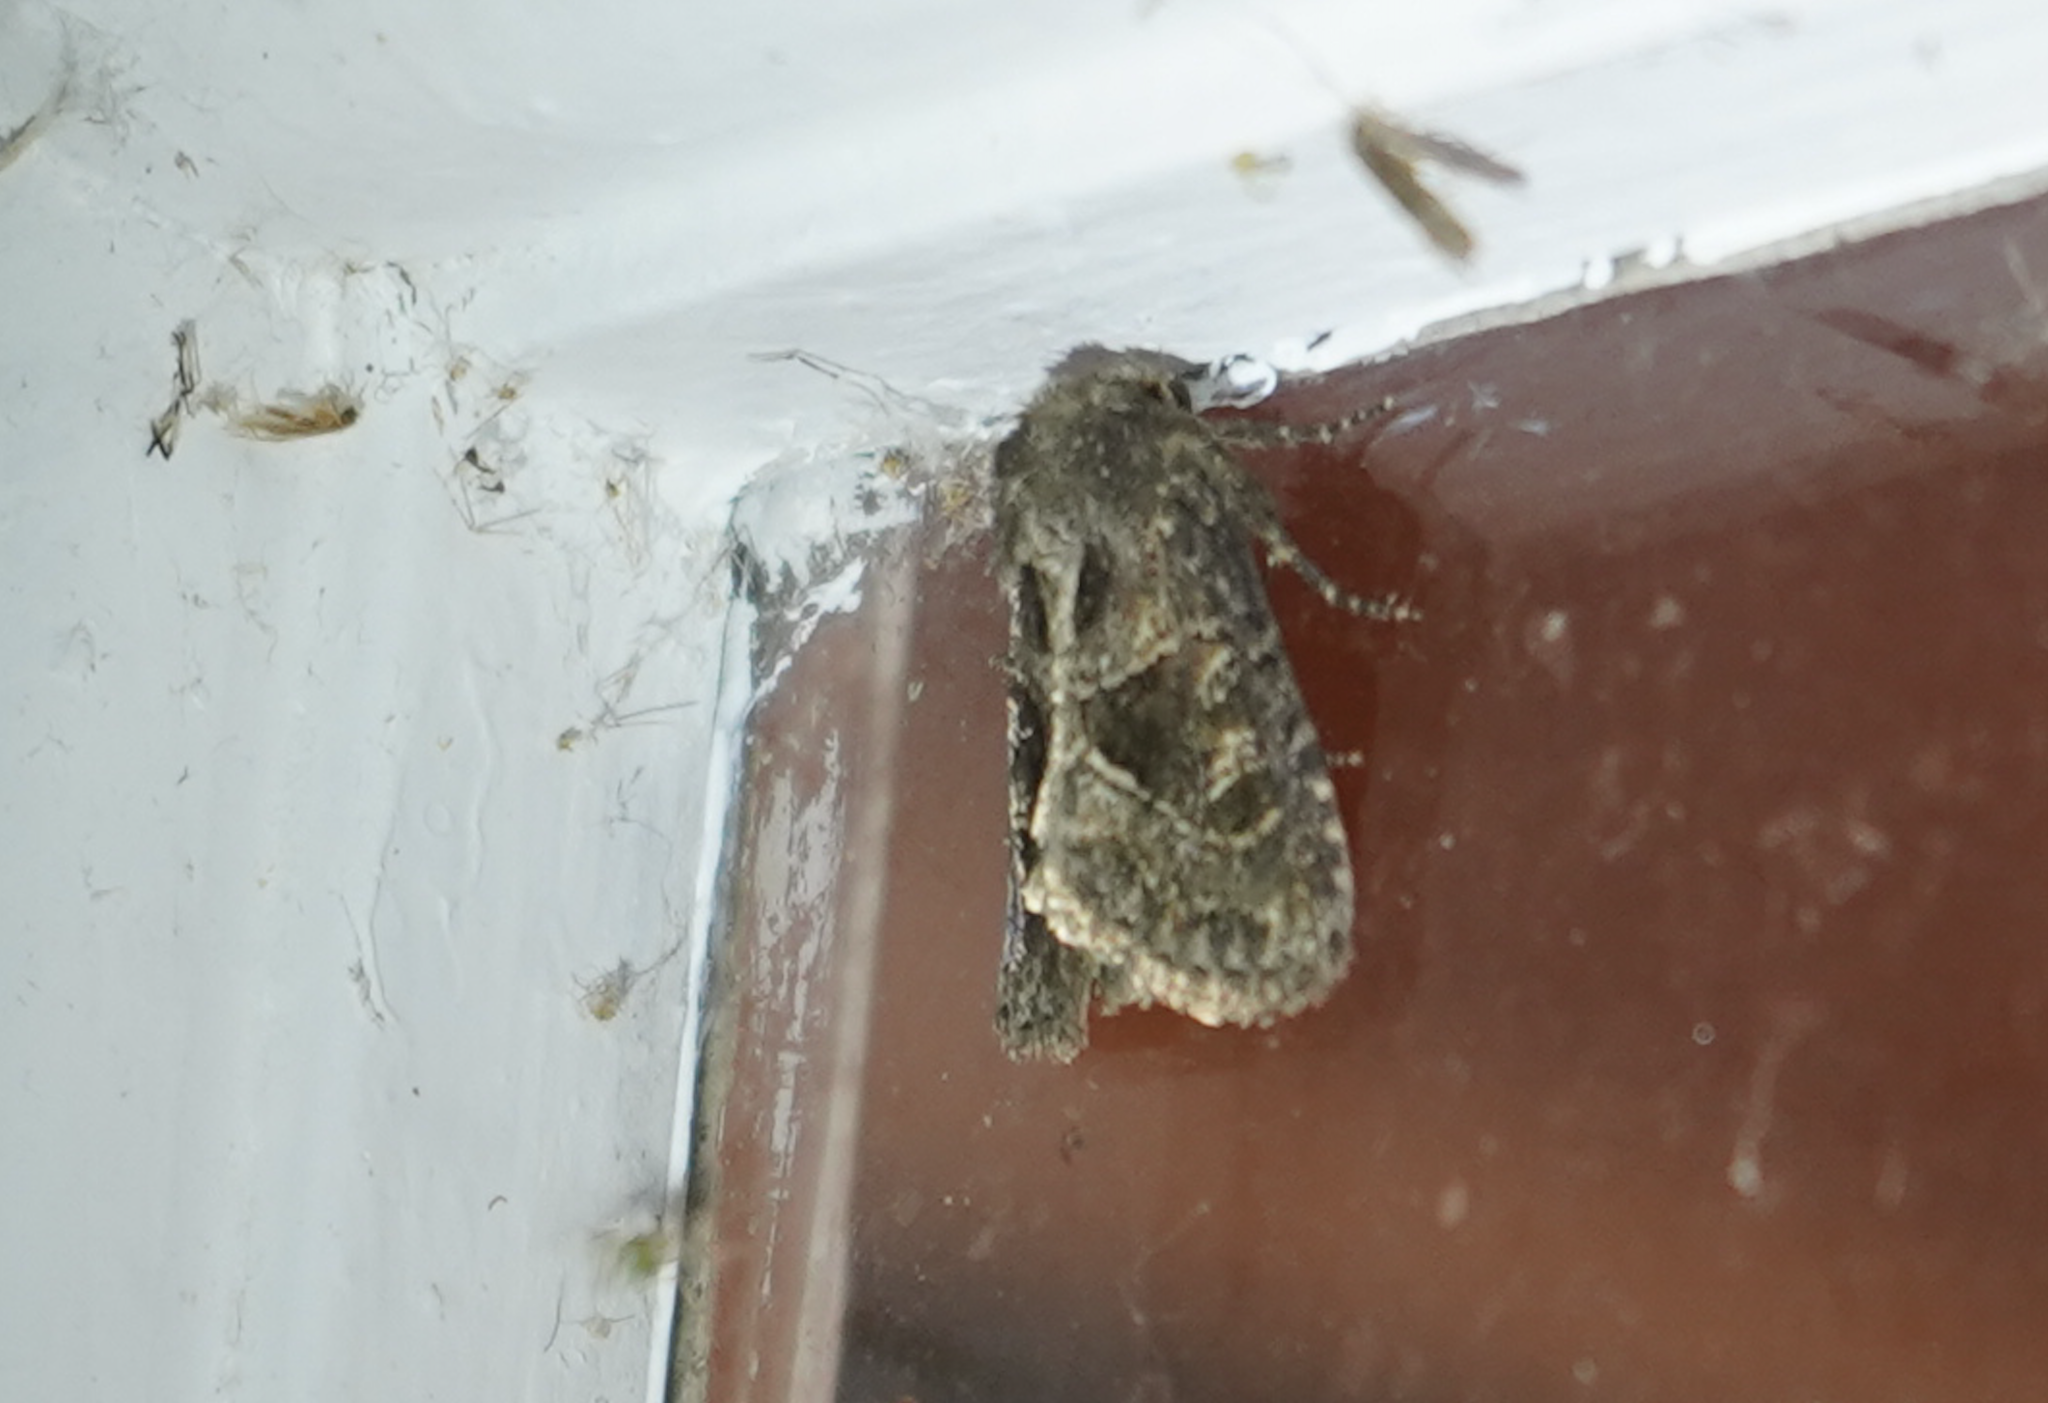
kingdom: Animalia
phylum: Arthropoda
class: Insecta
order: Lepidoptera
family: Noctuidae
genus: Oligia
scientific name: Oligia obtusa
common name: Obtuse sedge borer
